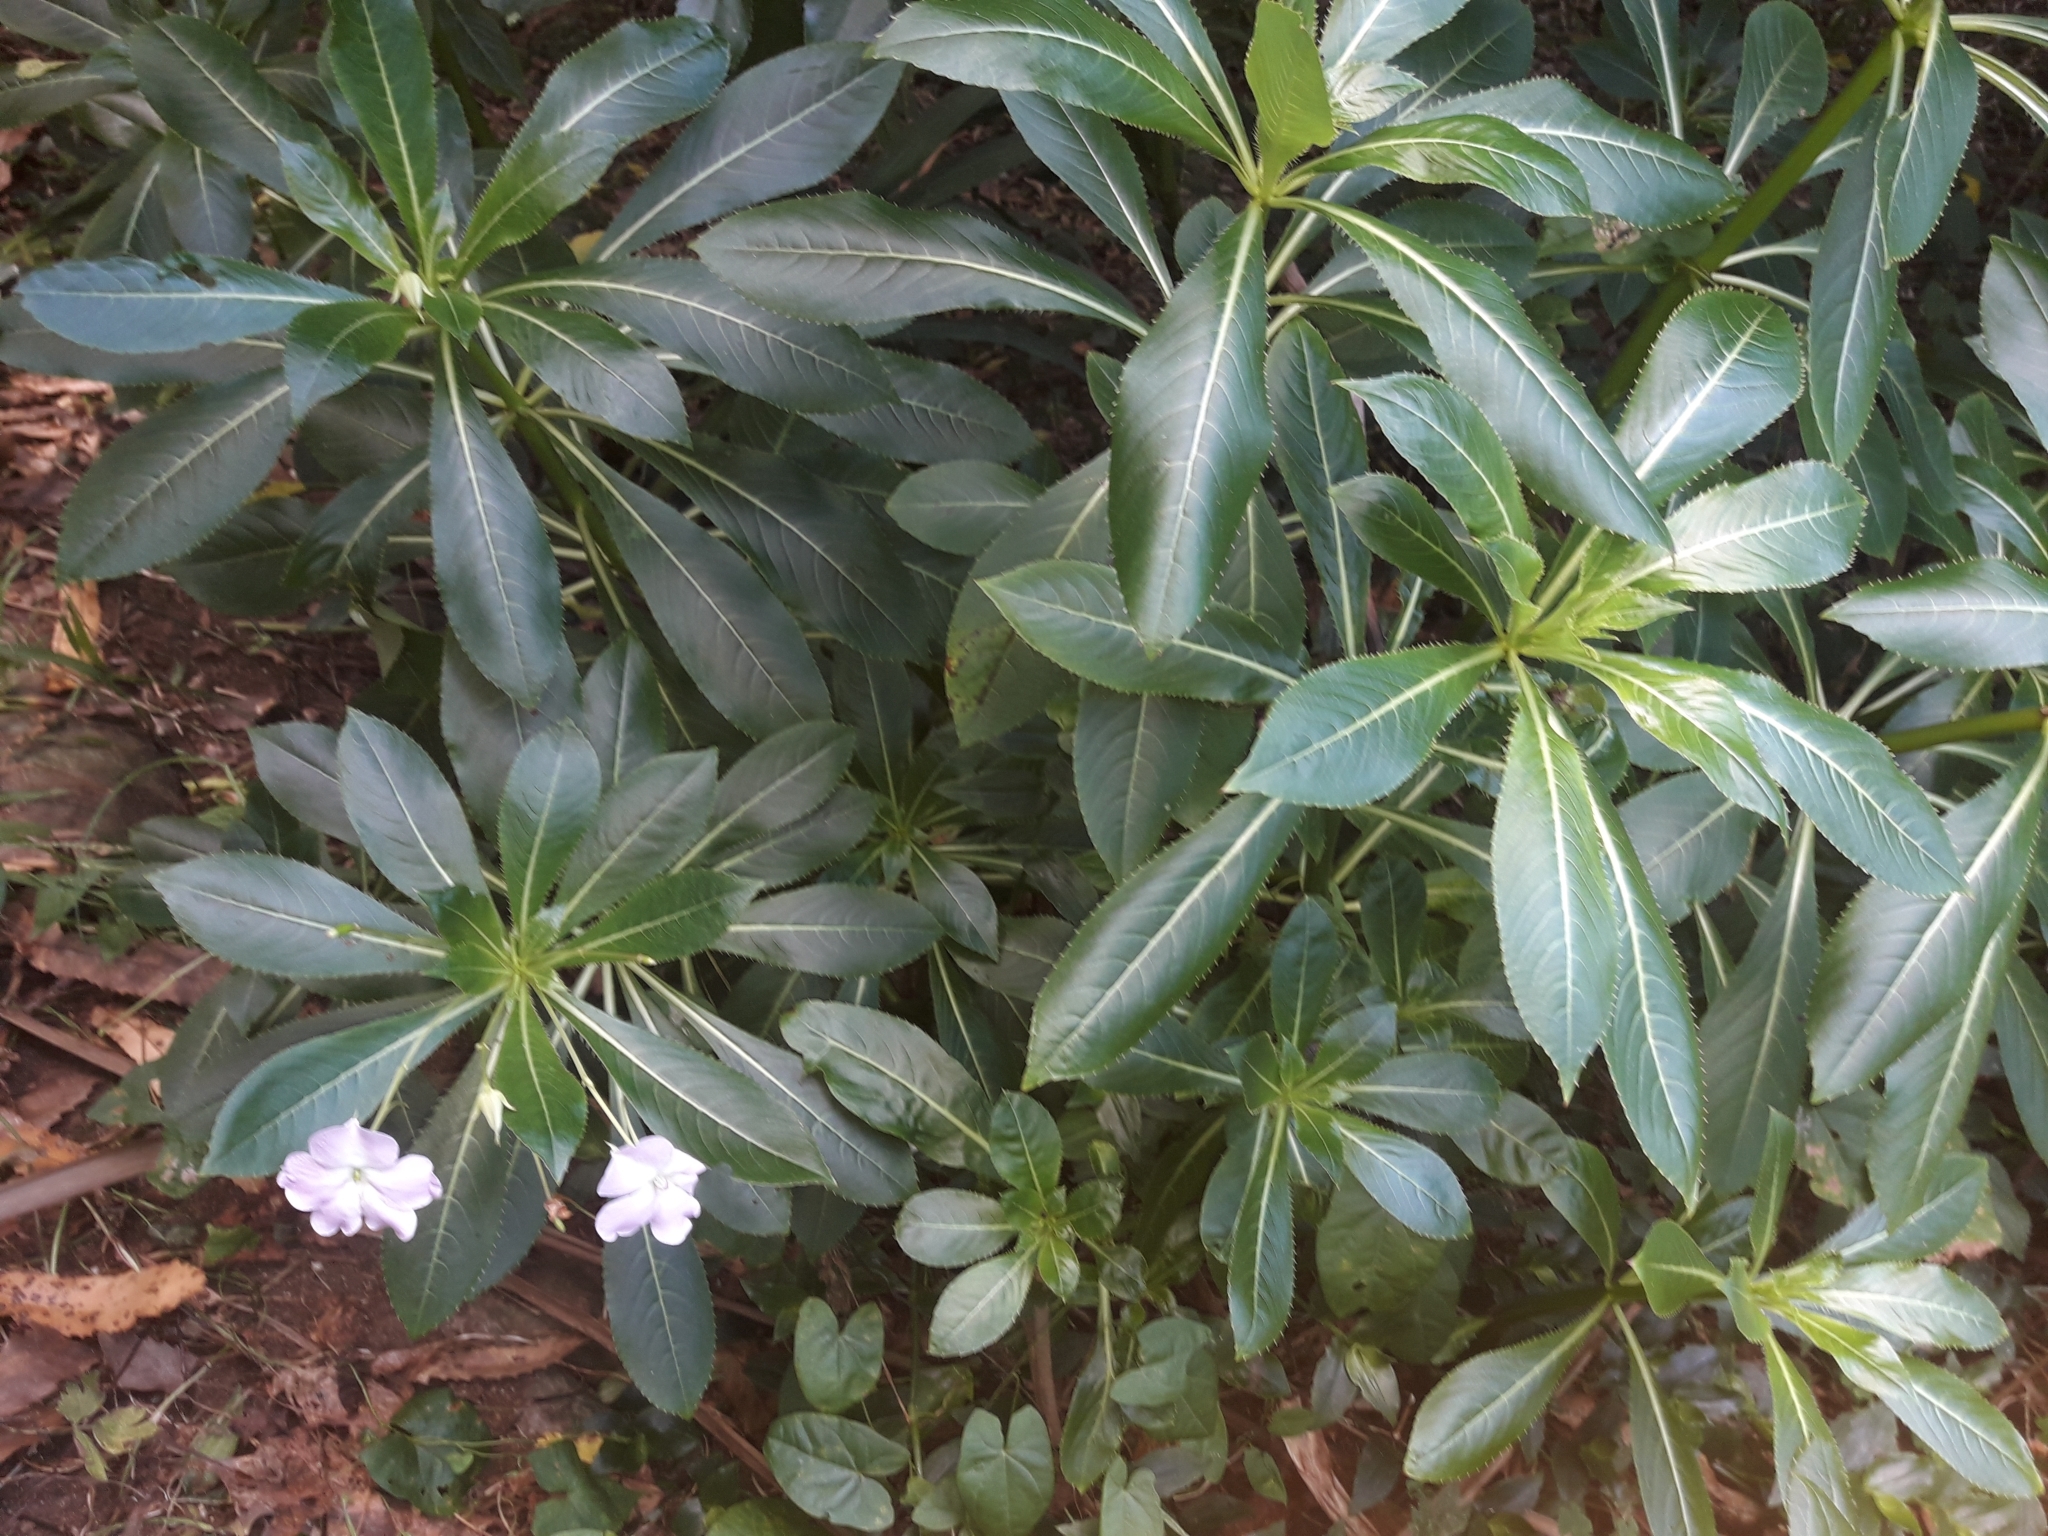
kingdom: Plantae
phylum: Tracheophyta
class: Magnoliopsida
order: Ericales
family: Balsaminaceae
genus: Impatiens
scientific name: Impatiens sodenii
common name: Oliver's touch-me-not
